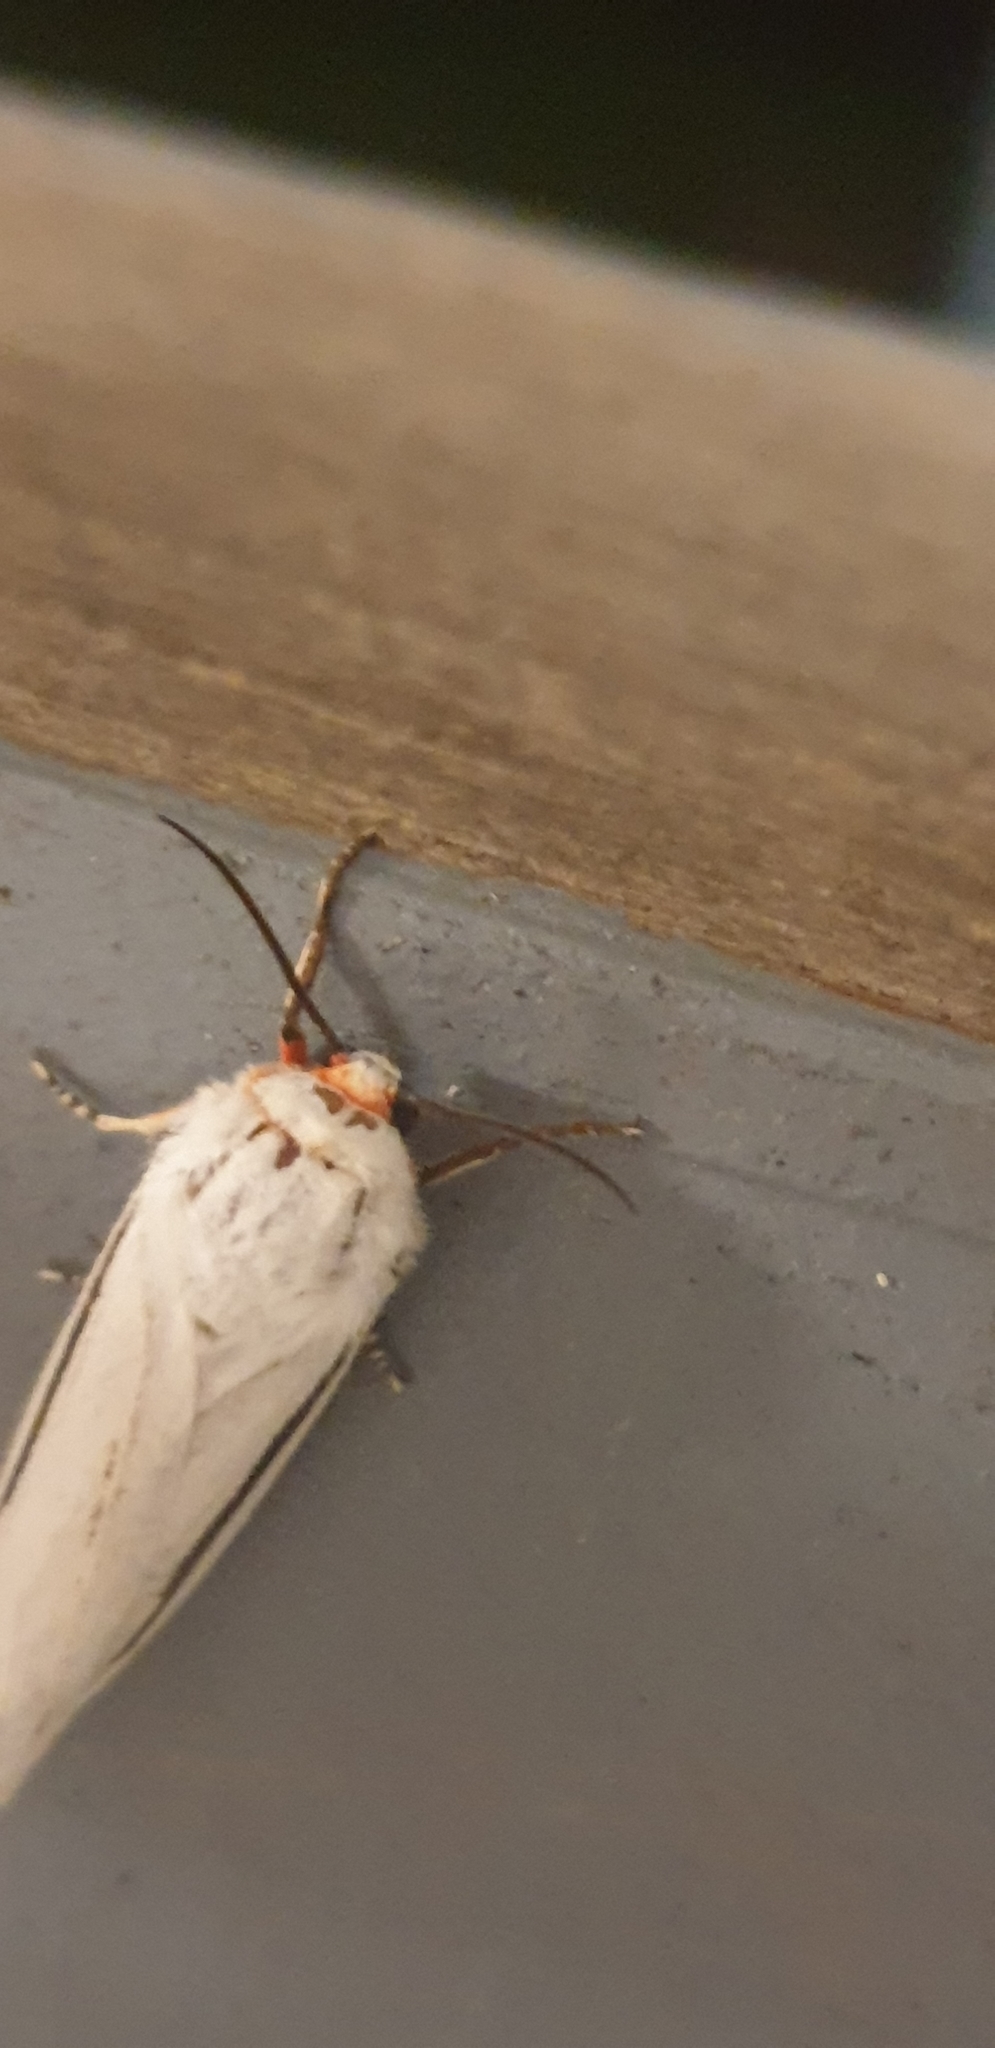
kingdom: Animalia
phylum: Arthropoda
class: Insecta
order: Lepidoptera
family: Erebidae
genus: Aloa
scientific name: Aloa marginata
